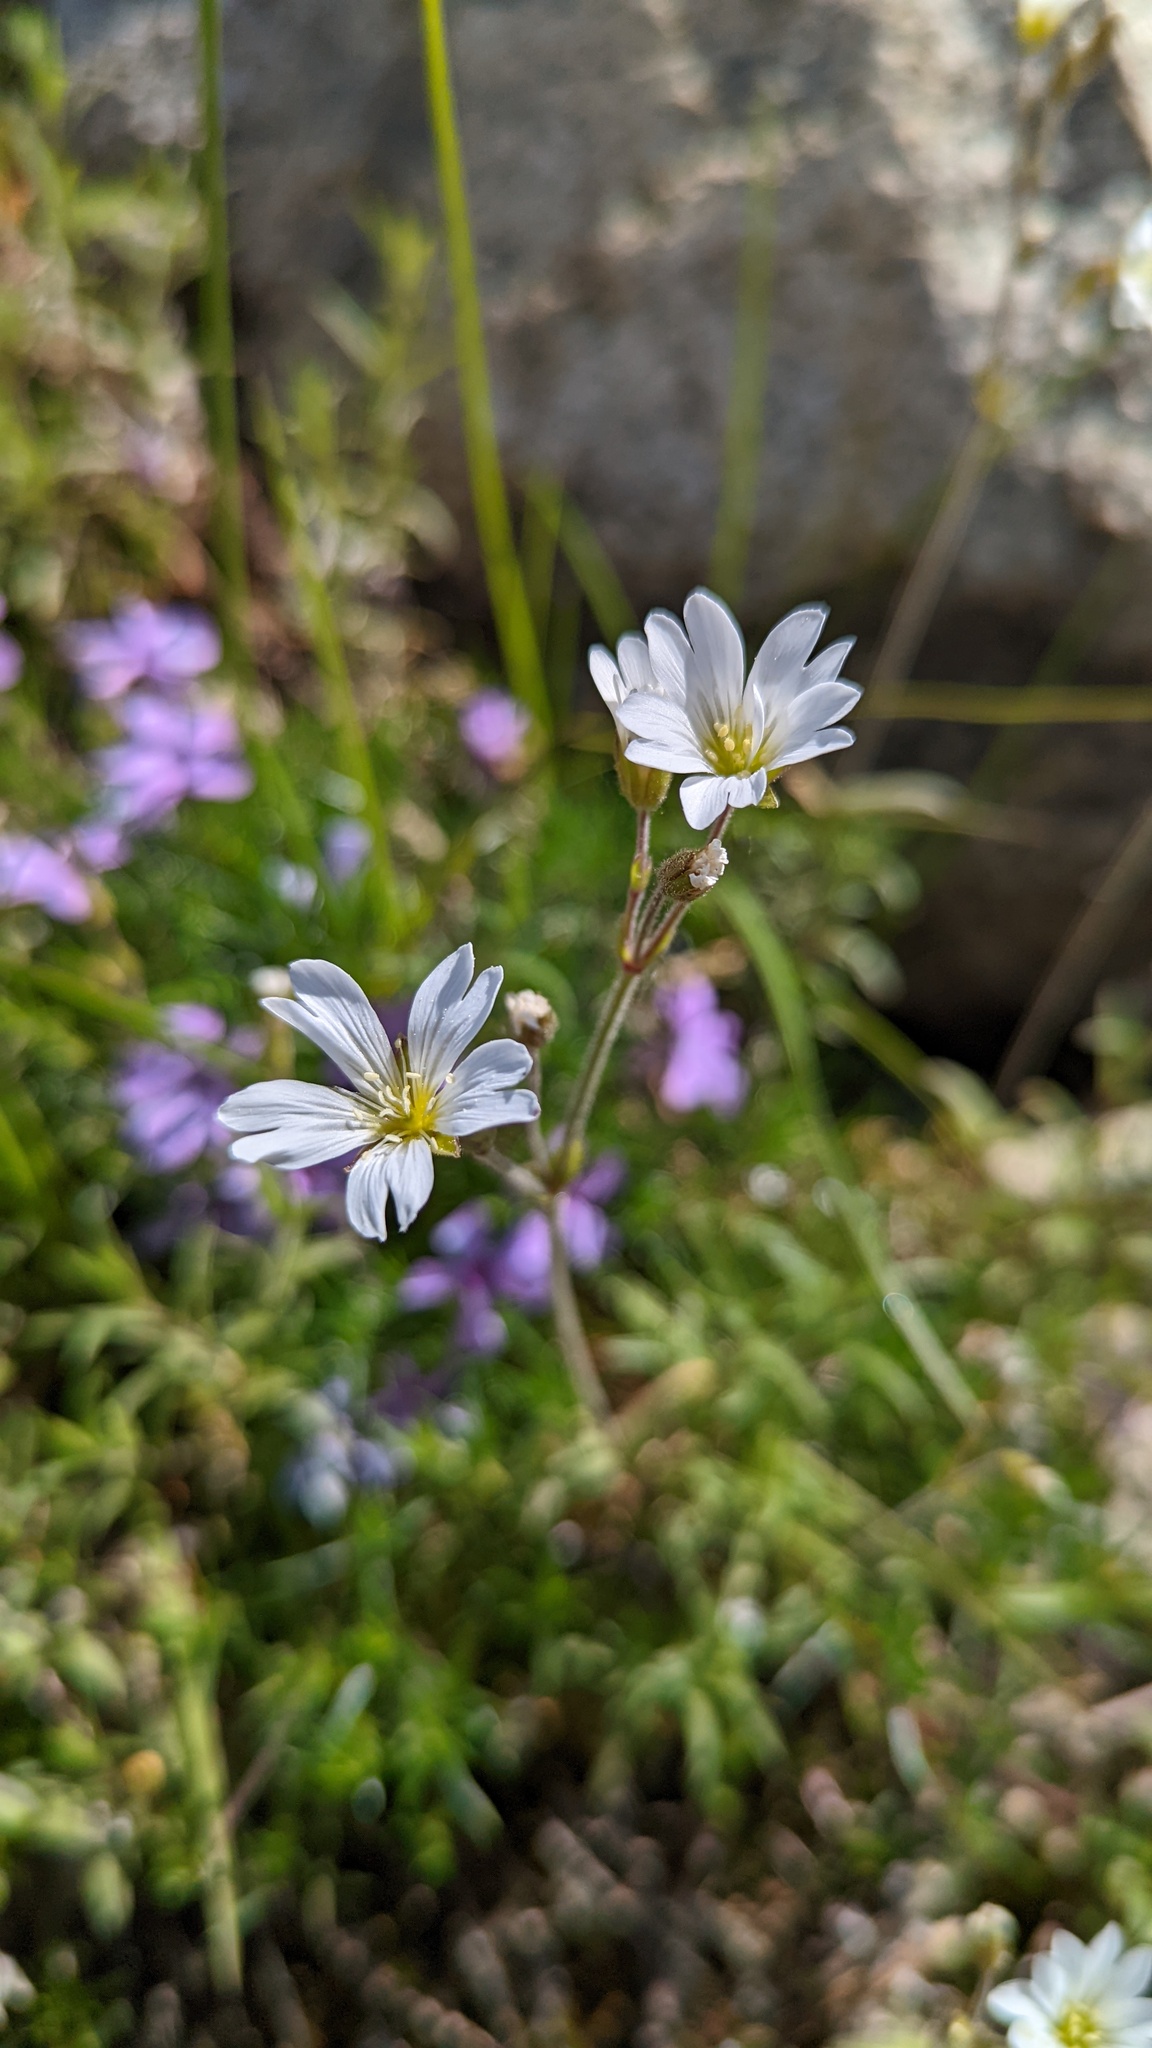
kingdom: Plantae
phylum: Tracheophyta
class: Magnoliopsida
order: Caryophyllales
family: Caryophyllaceae
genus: Cerastium
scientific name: Cerastium arvense
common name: Field mouse-ear
